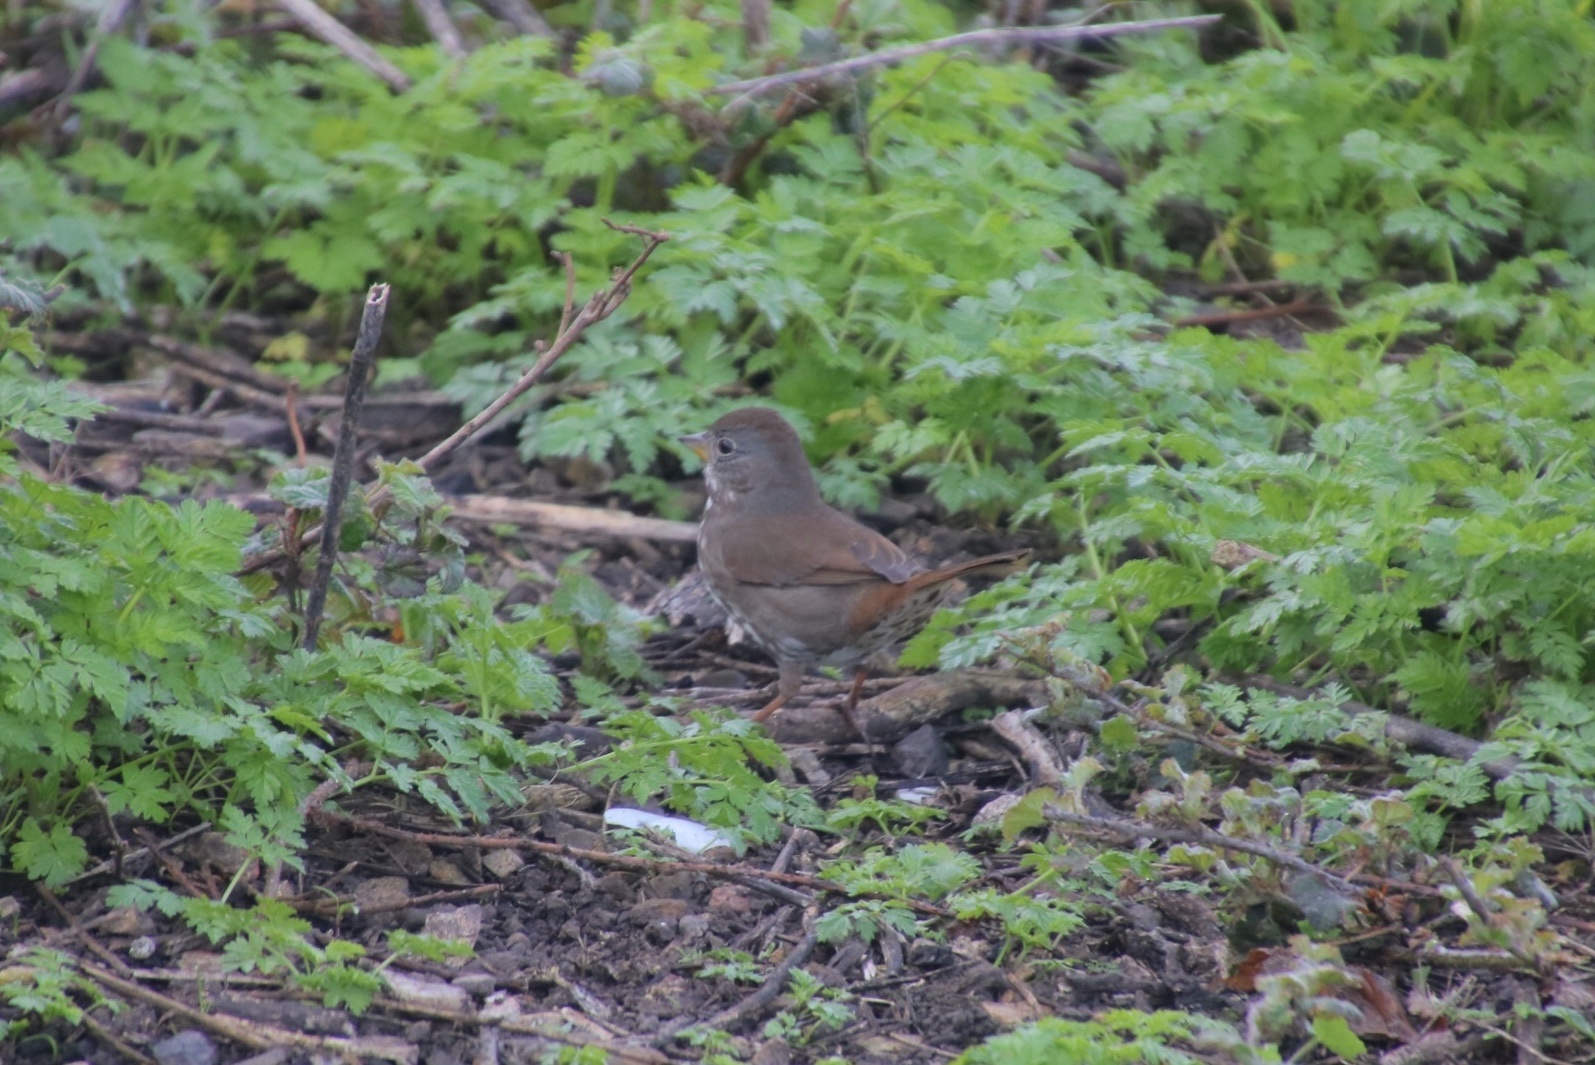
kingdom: Animalia
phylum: Chordata
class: Aves
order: Passeriformes
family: Passerellidae
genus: Passerella
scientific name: Passerella iliaca
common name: Fox sparrow
